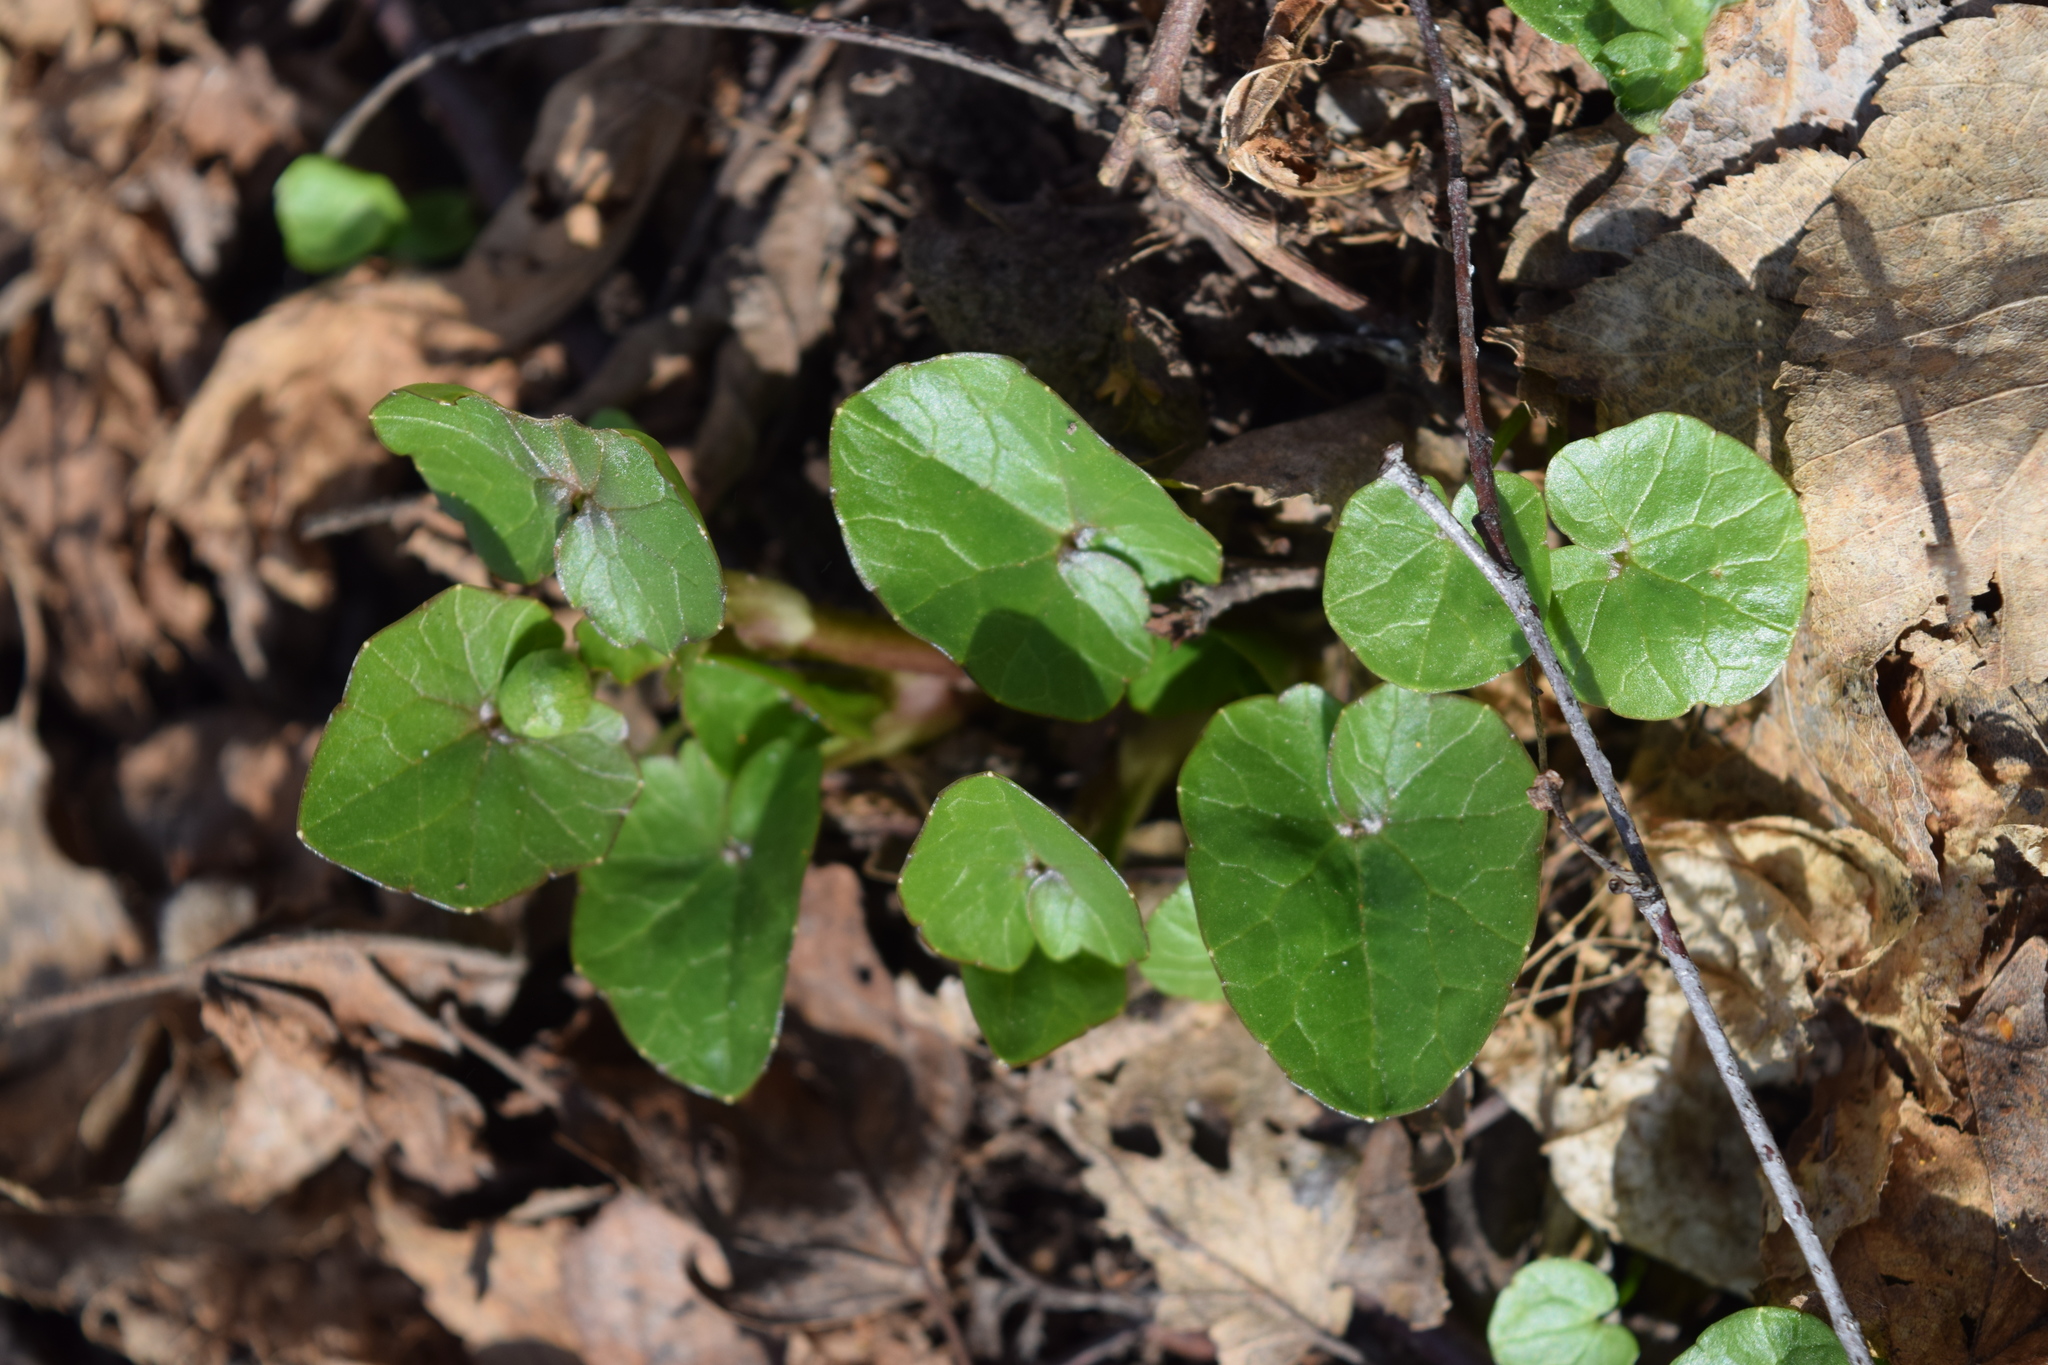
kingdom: Plantae
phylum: Tracheophyta
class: Magnoliopsida
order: Ranunculales
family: Ranunculaceae
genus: Ficaria
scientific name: Ficaria verna
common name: Lesser celandine
